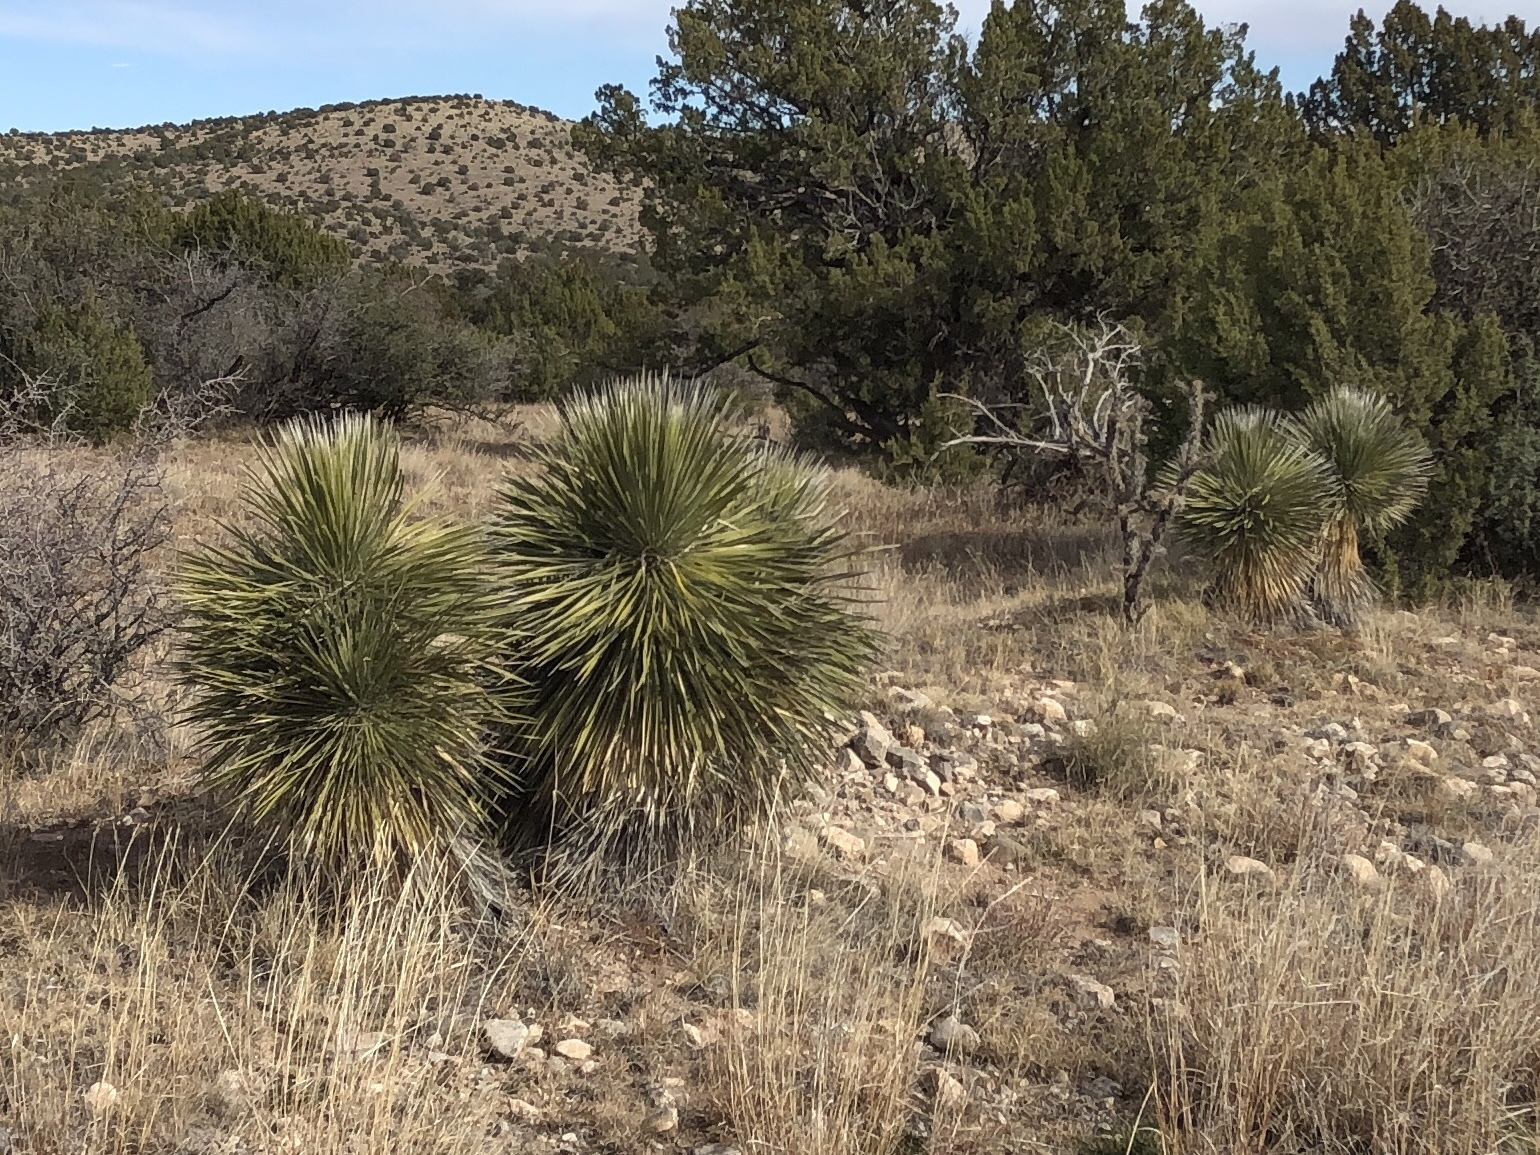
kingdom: Plantae
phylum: Tracheophyta
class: Liliopsida
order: Asparagales
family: Asparagaceae
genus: Yucca
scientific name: Yucca elata
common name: Palmella
